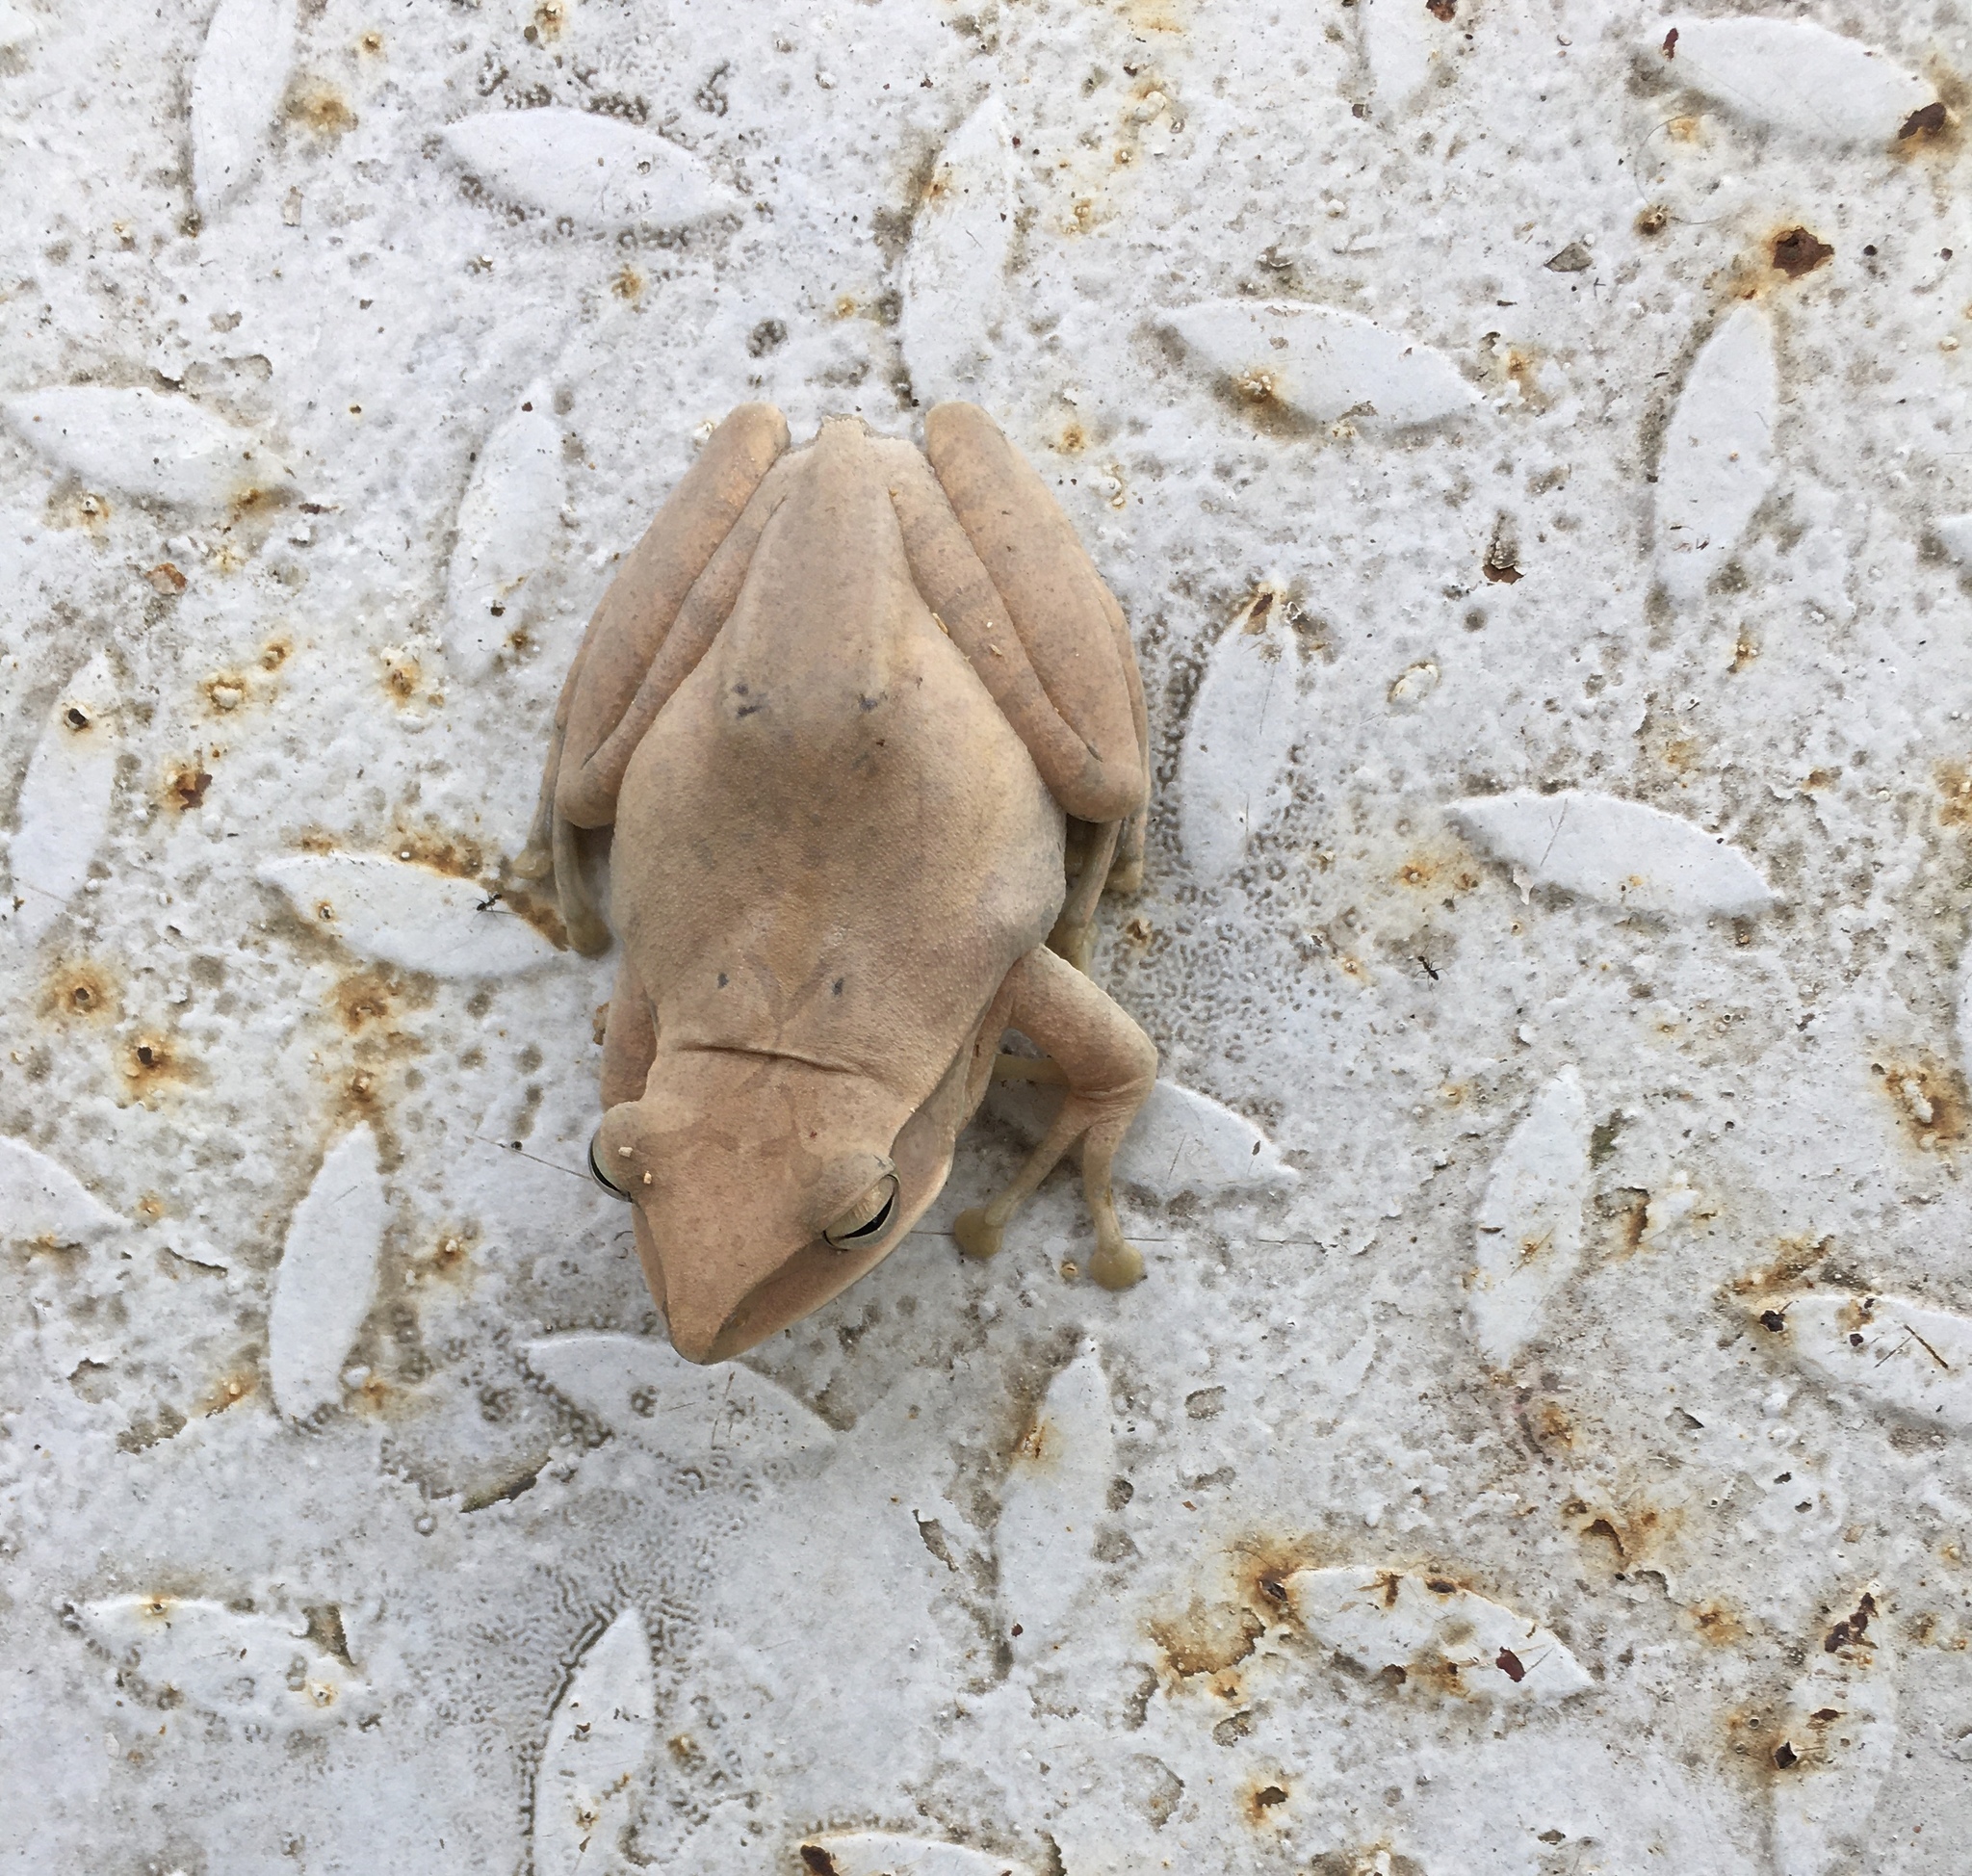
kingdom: Animalia
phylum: Chordata
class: Amphibia
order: Anura
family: Rhacophoridae
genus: Polypedates
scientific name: Polypedates megacephalus
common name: Hong kong whipping frog
